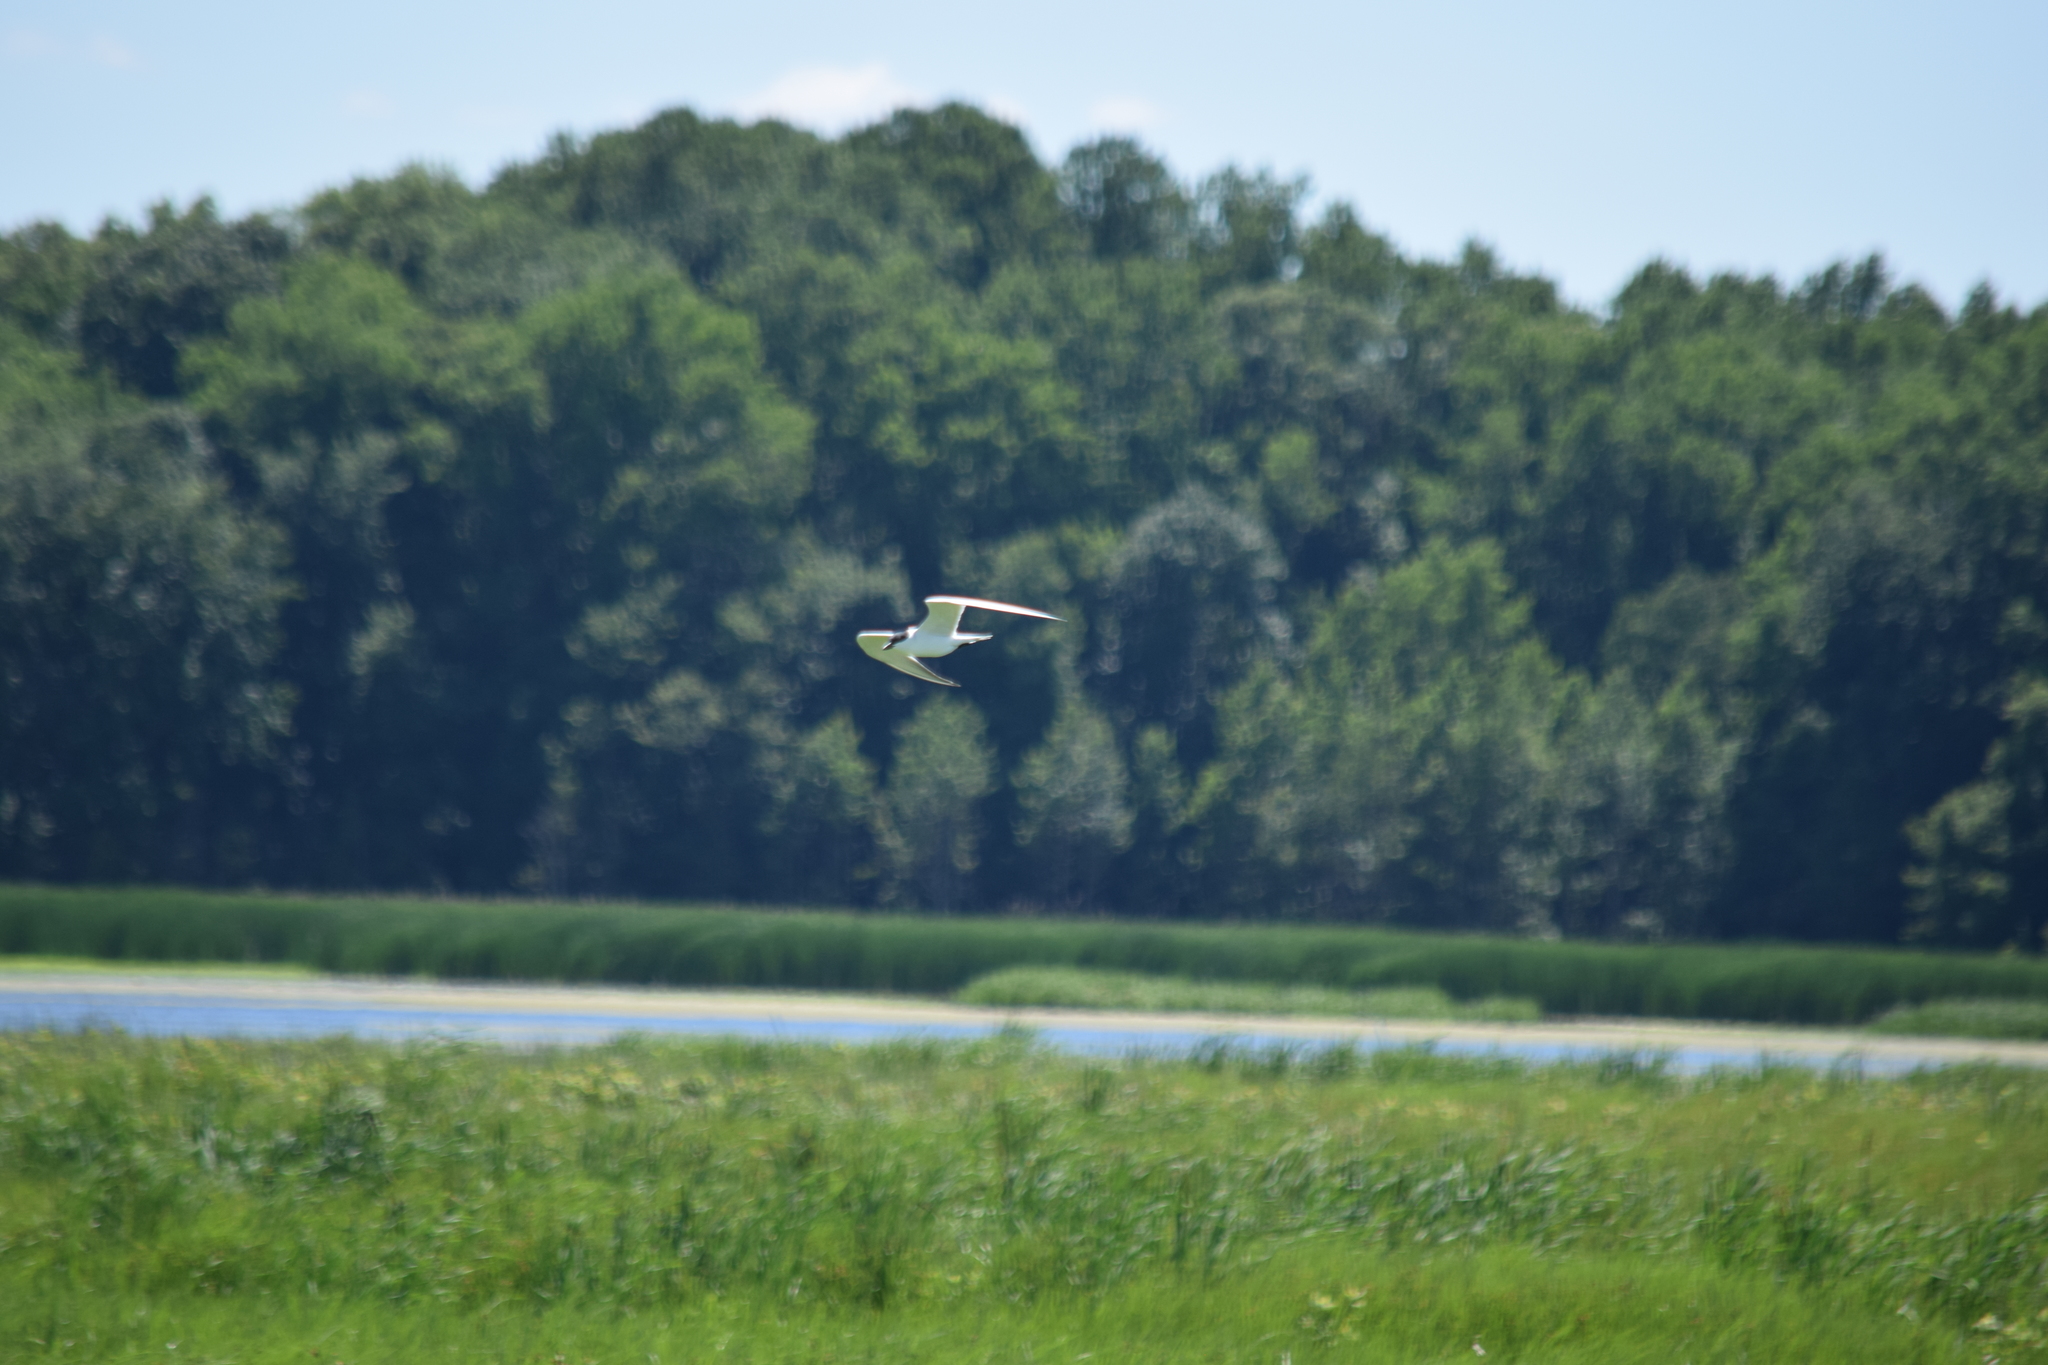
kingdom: Animalia
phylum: Chordata
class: Aves
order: Charadriiformes
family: Laridae
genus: Gelochelidon
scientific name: Gelochelidon nilotica
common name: Gull-billed tern
